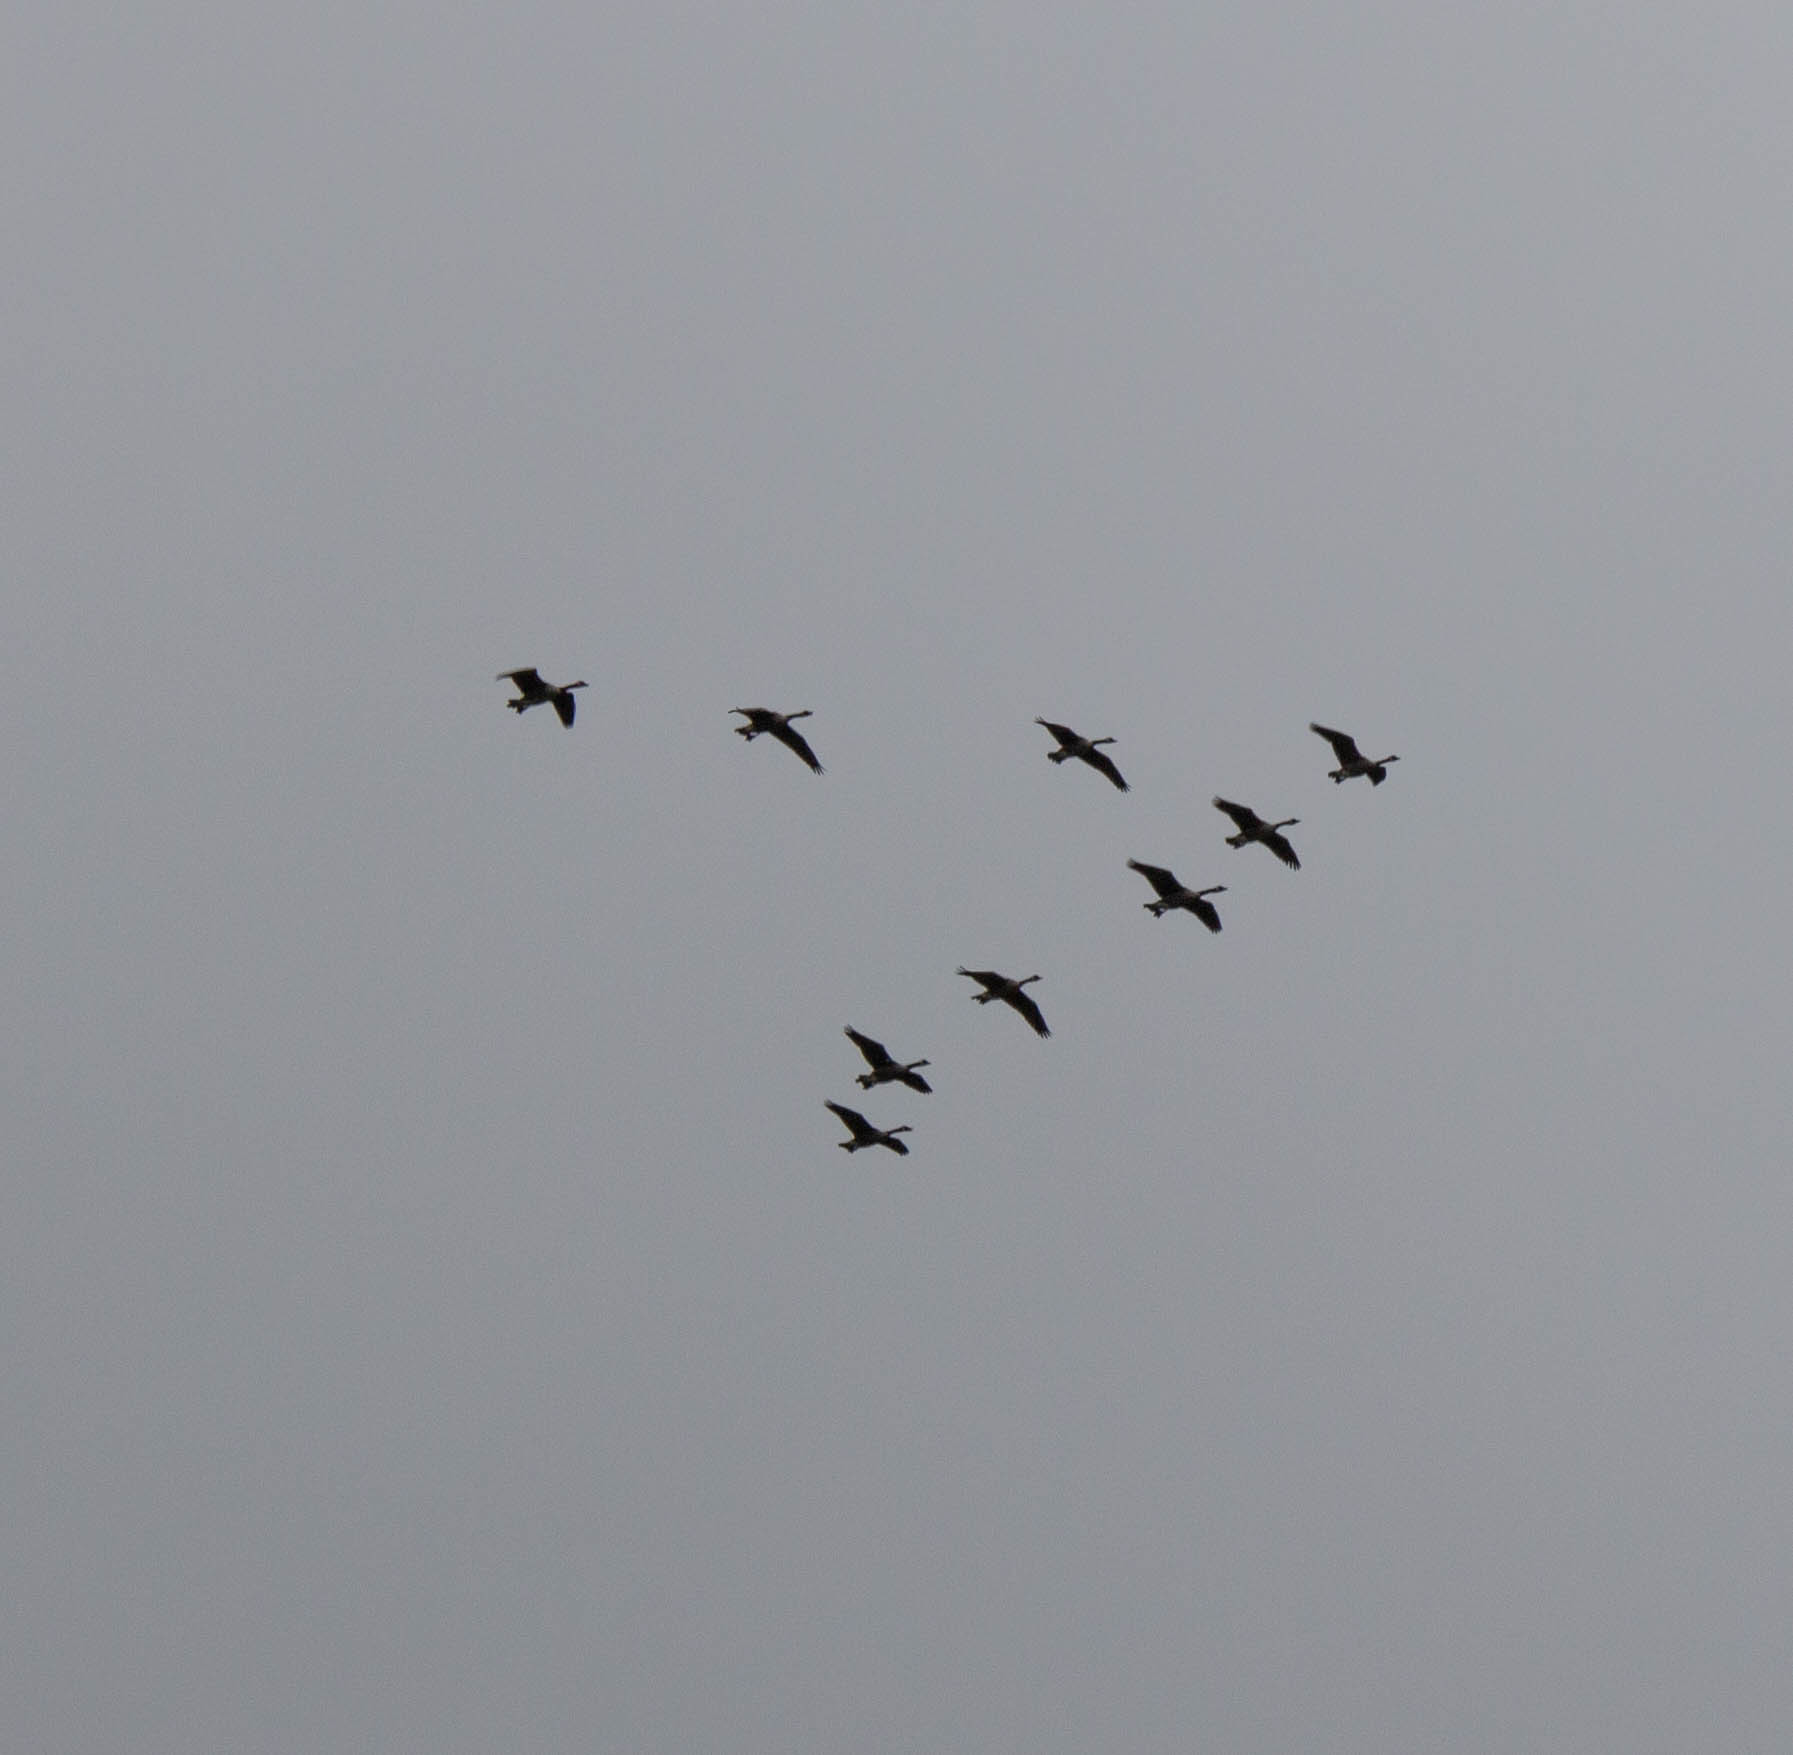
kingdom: Animalia
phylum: Chordata
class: Aves
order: Anseriformes
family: Anatidae
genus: Branta
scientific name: Branta canadensis
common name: Canada goose
